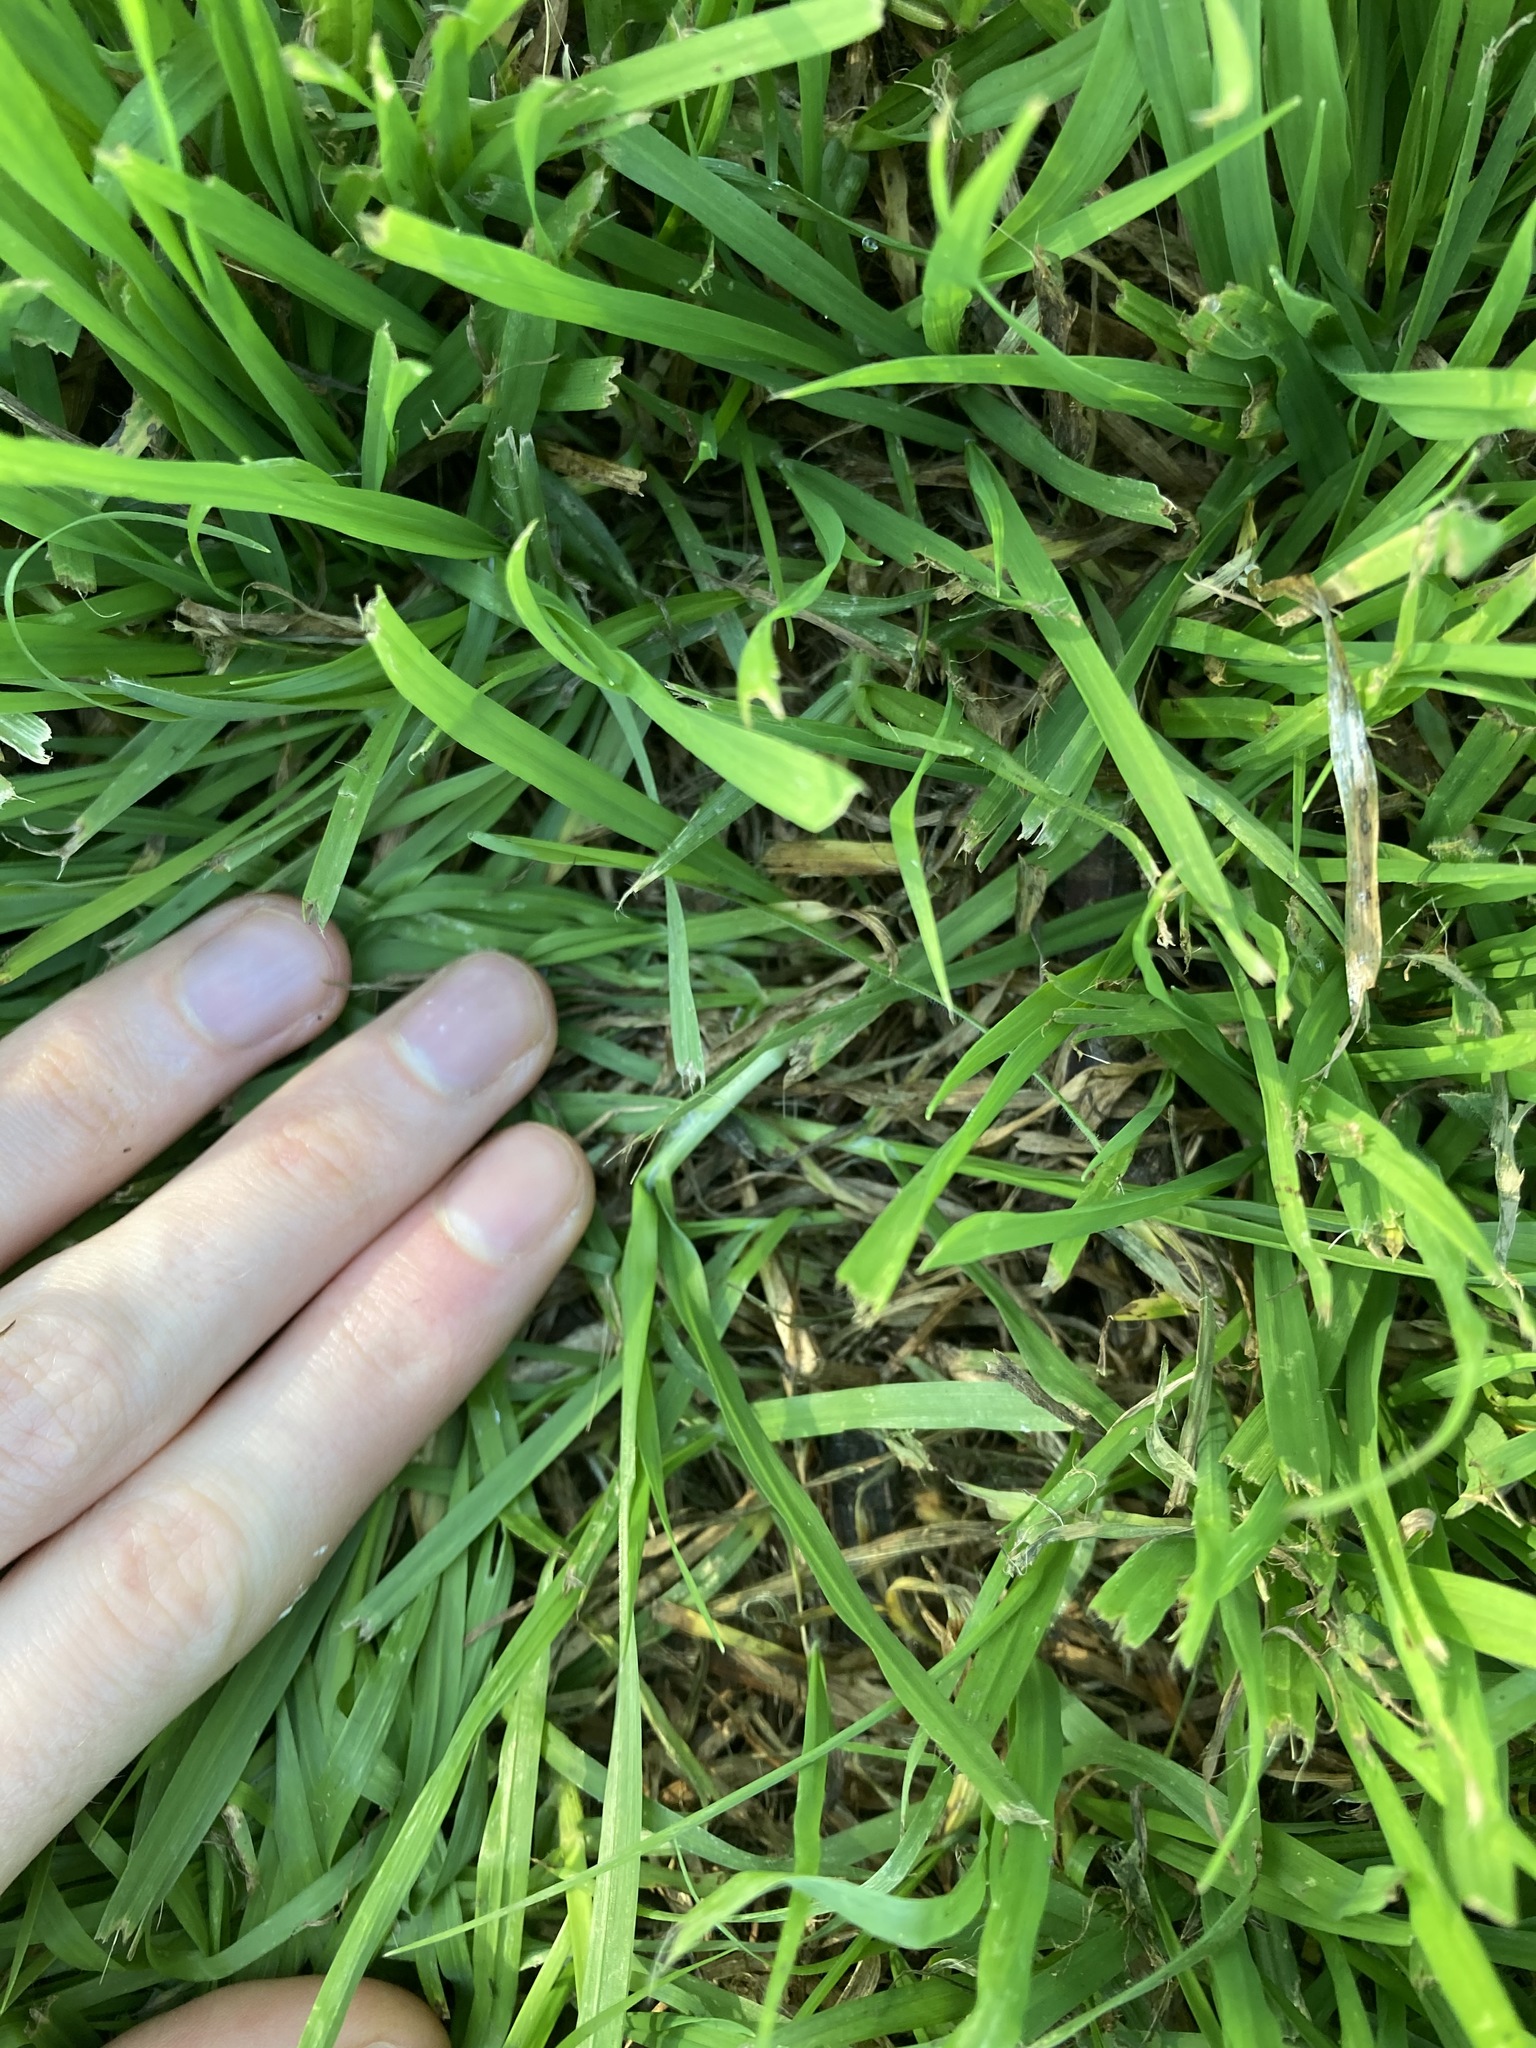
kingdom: Plantae
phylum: Tracheophyta
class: Liliopsida
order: Poales
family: Poaceae
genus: Cenchrus
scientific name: Cenchrus clandestinus
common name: Kikuyugrass
